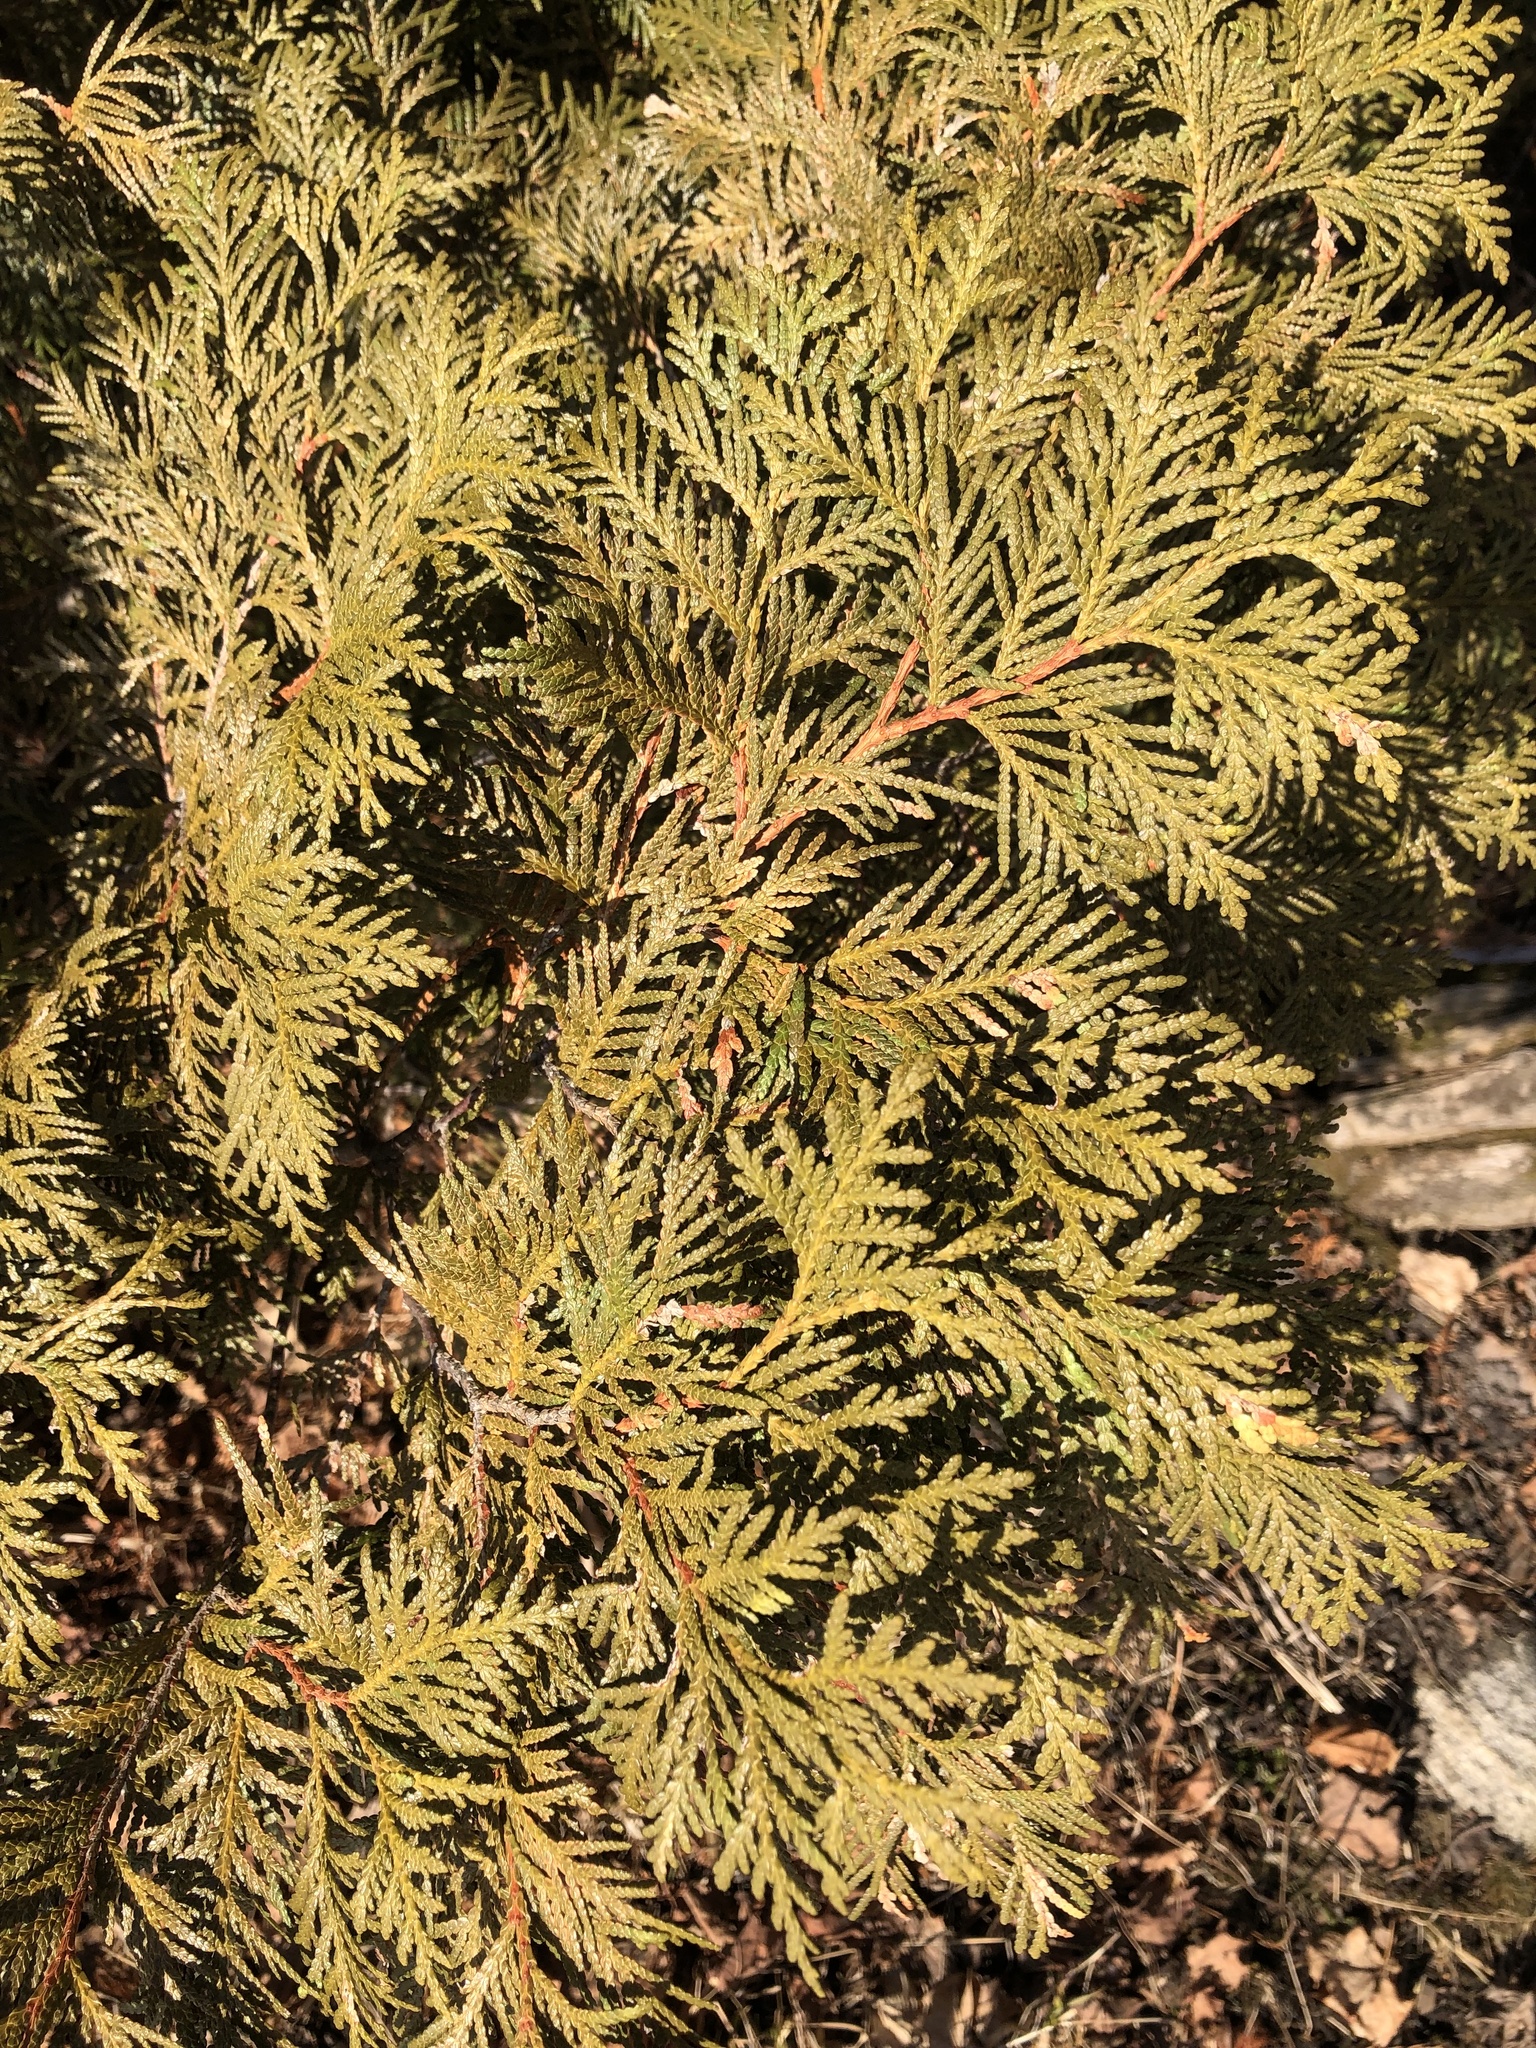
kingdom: Plantae
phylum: Tracheophyta
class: Pinopsida
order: Pinales
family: Cupressaceae
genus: Thuja
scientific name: Thuja occidentalis
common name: Northern white-cedar
